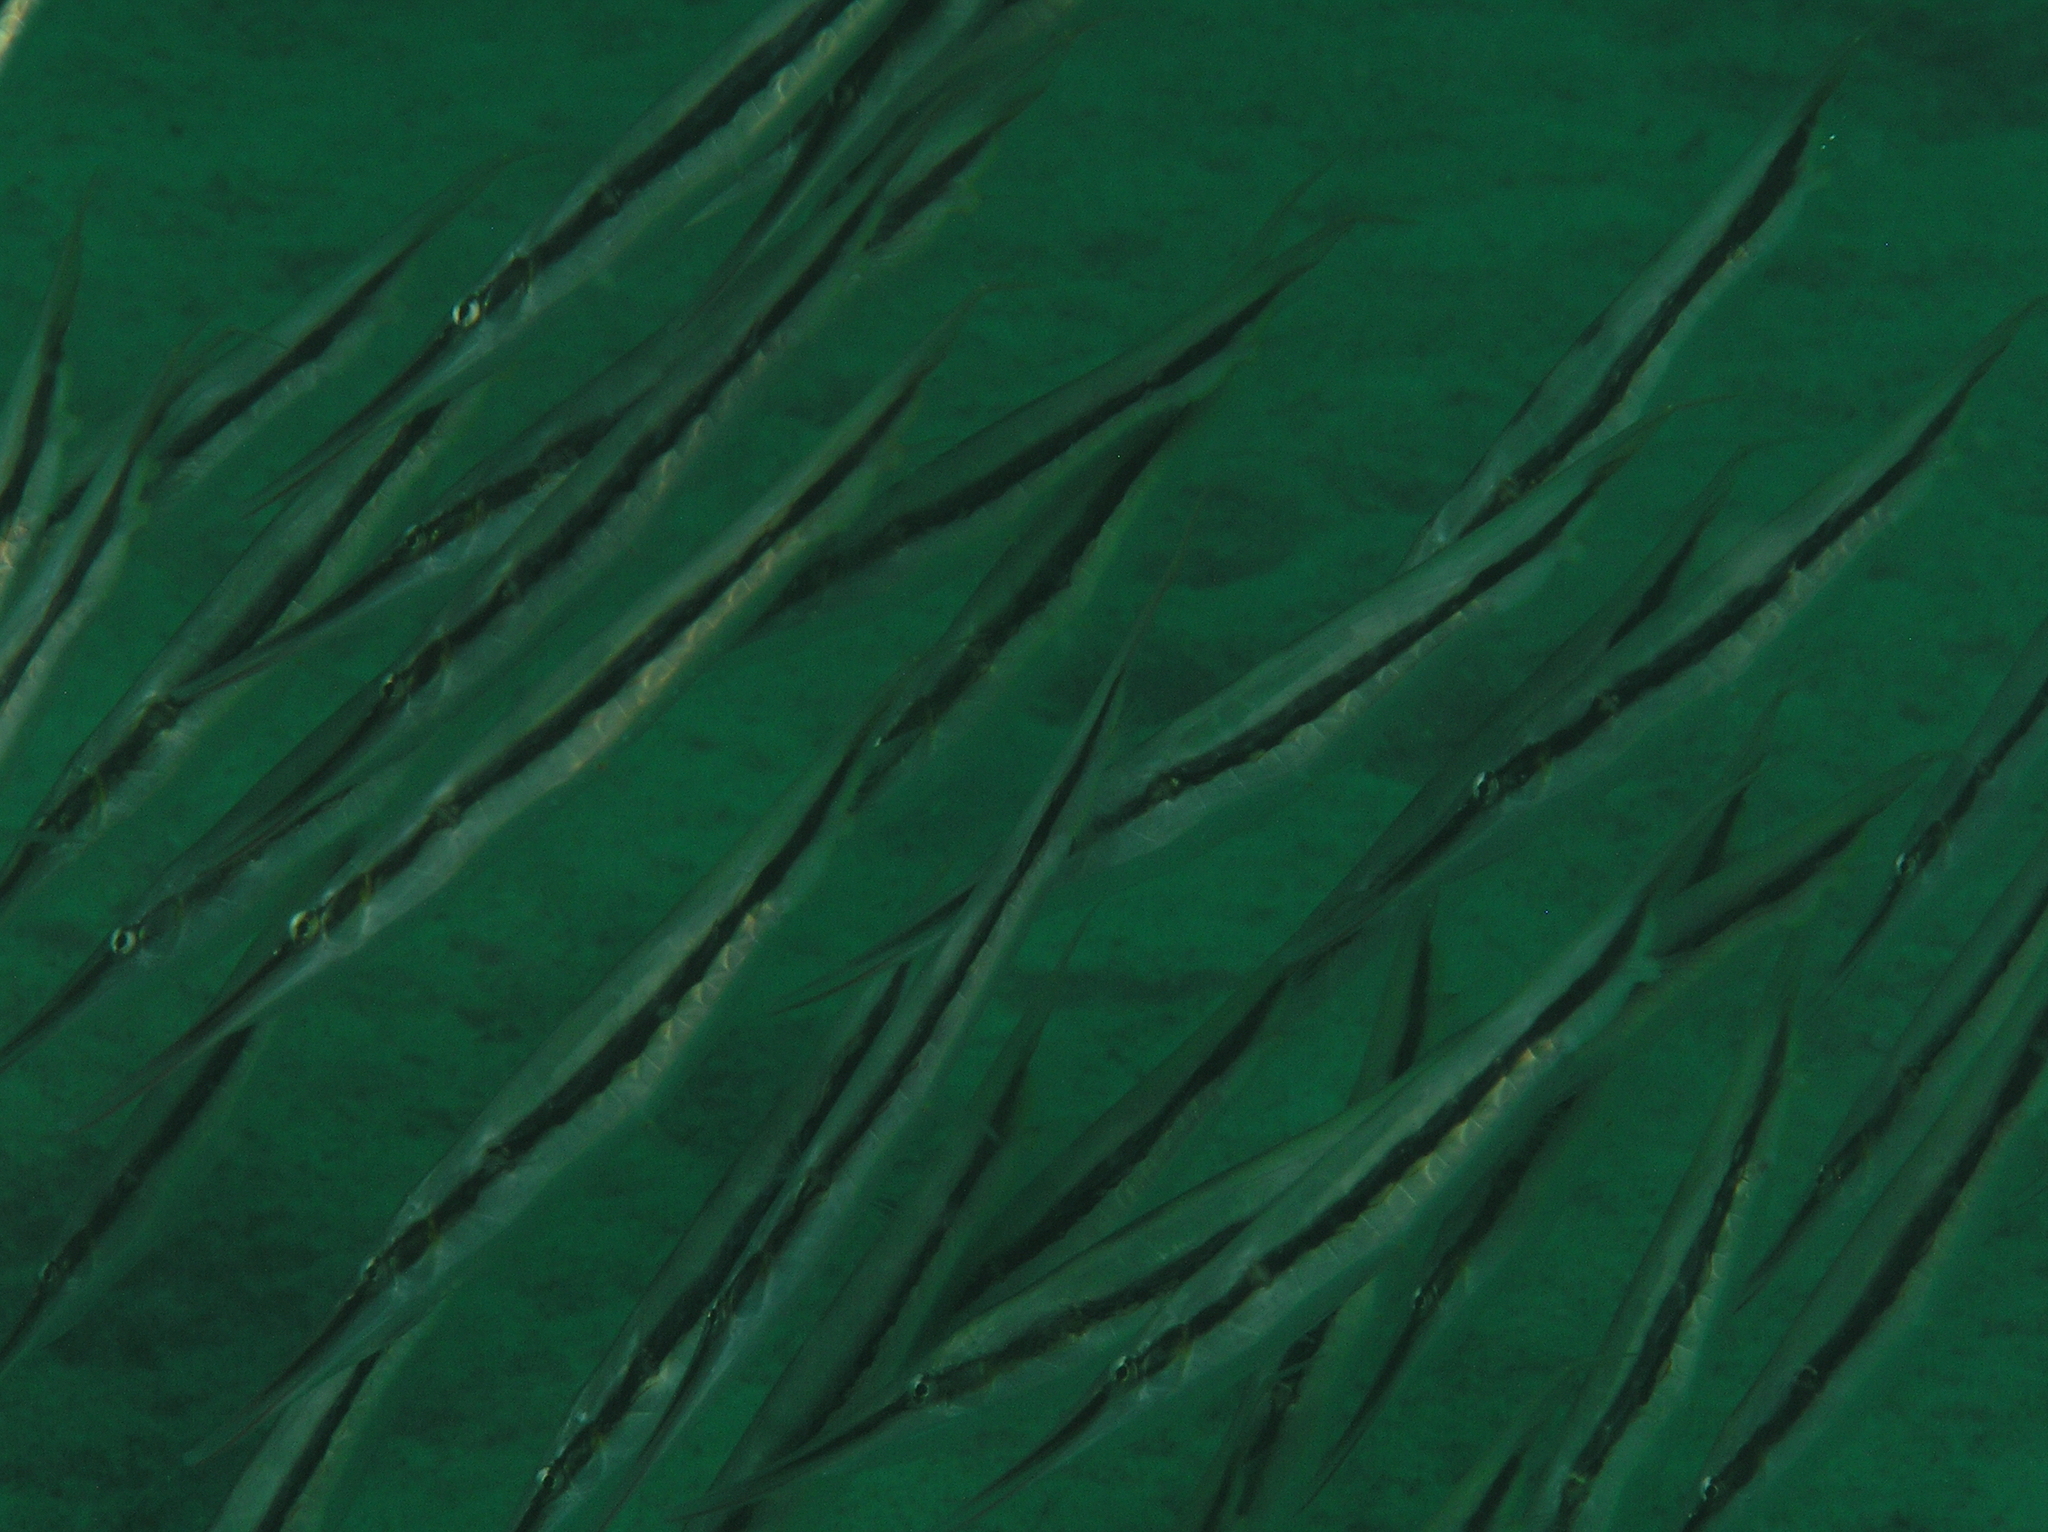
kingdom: Animalia
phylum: Chordata
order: Syngnathiformes
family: Centriscidae
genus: Aeoliscus
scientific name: Aeoliscus strigatus
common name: Canif
